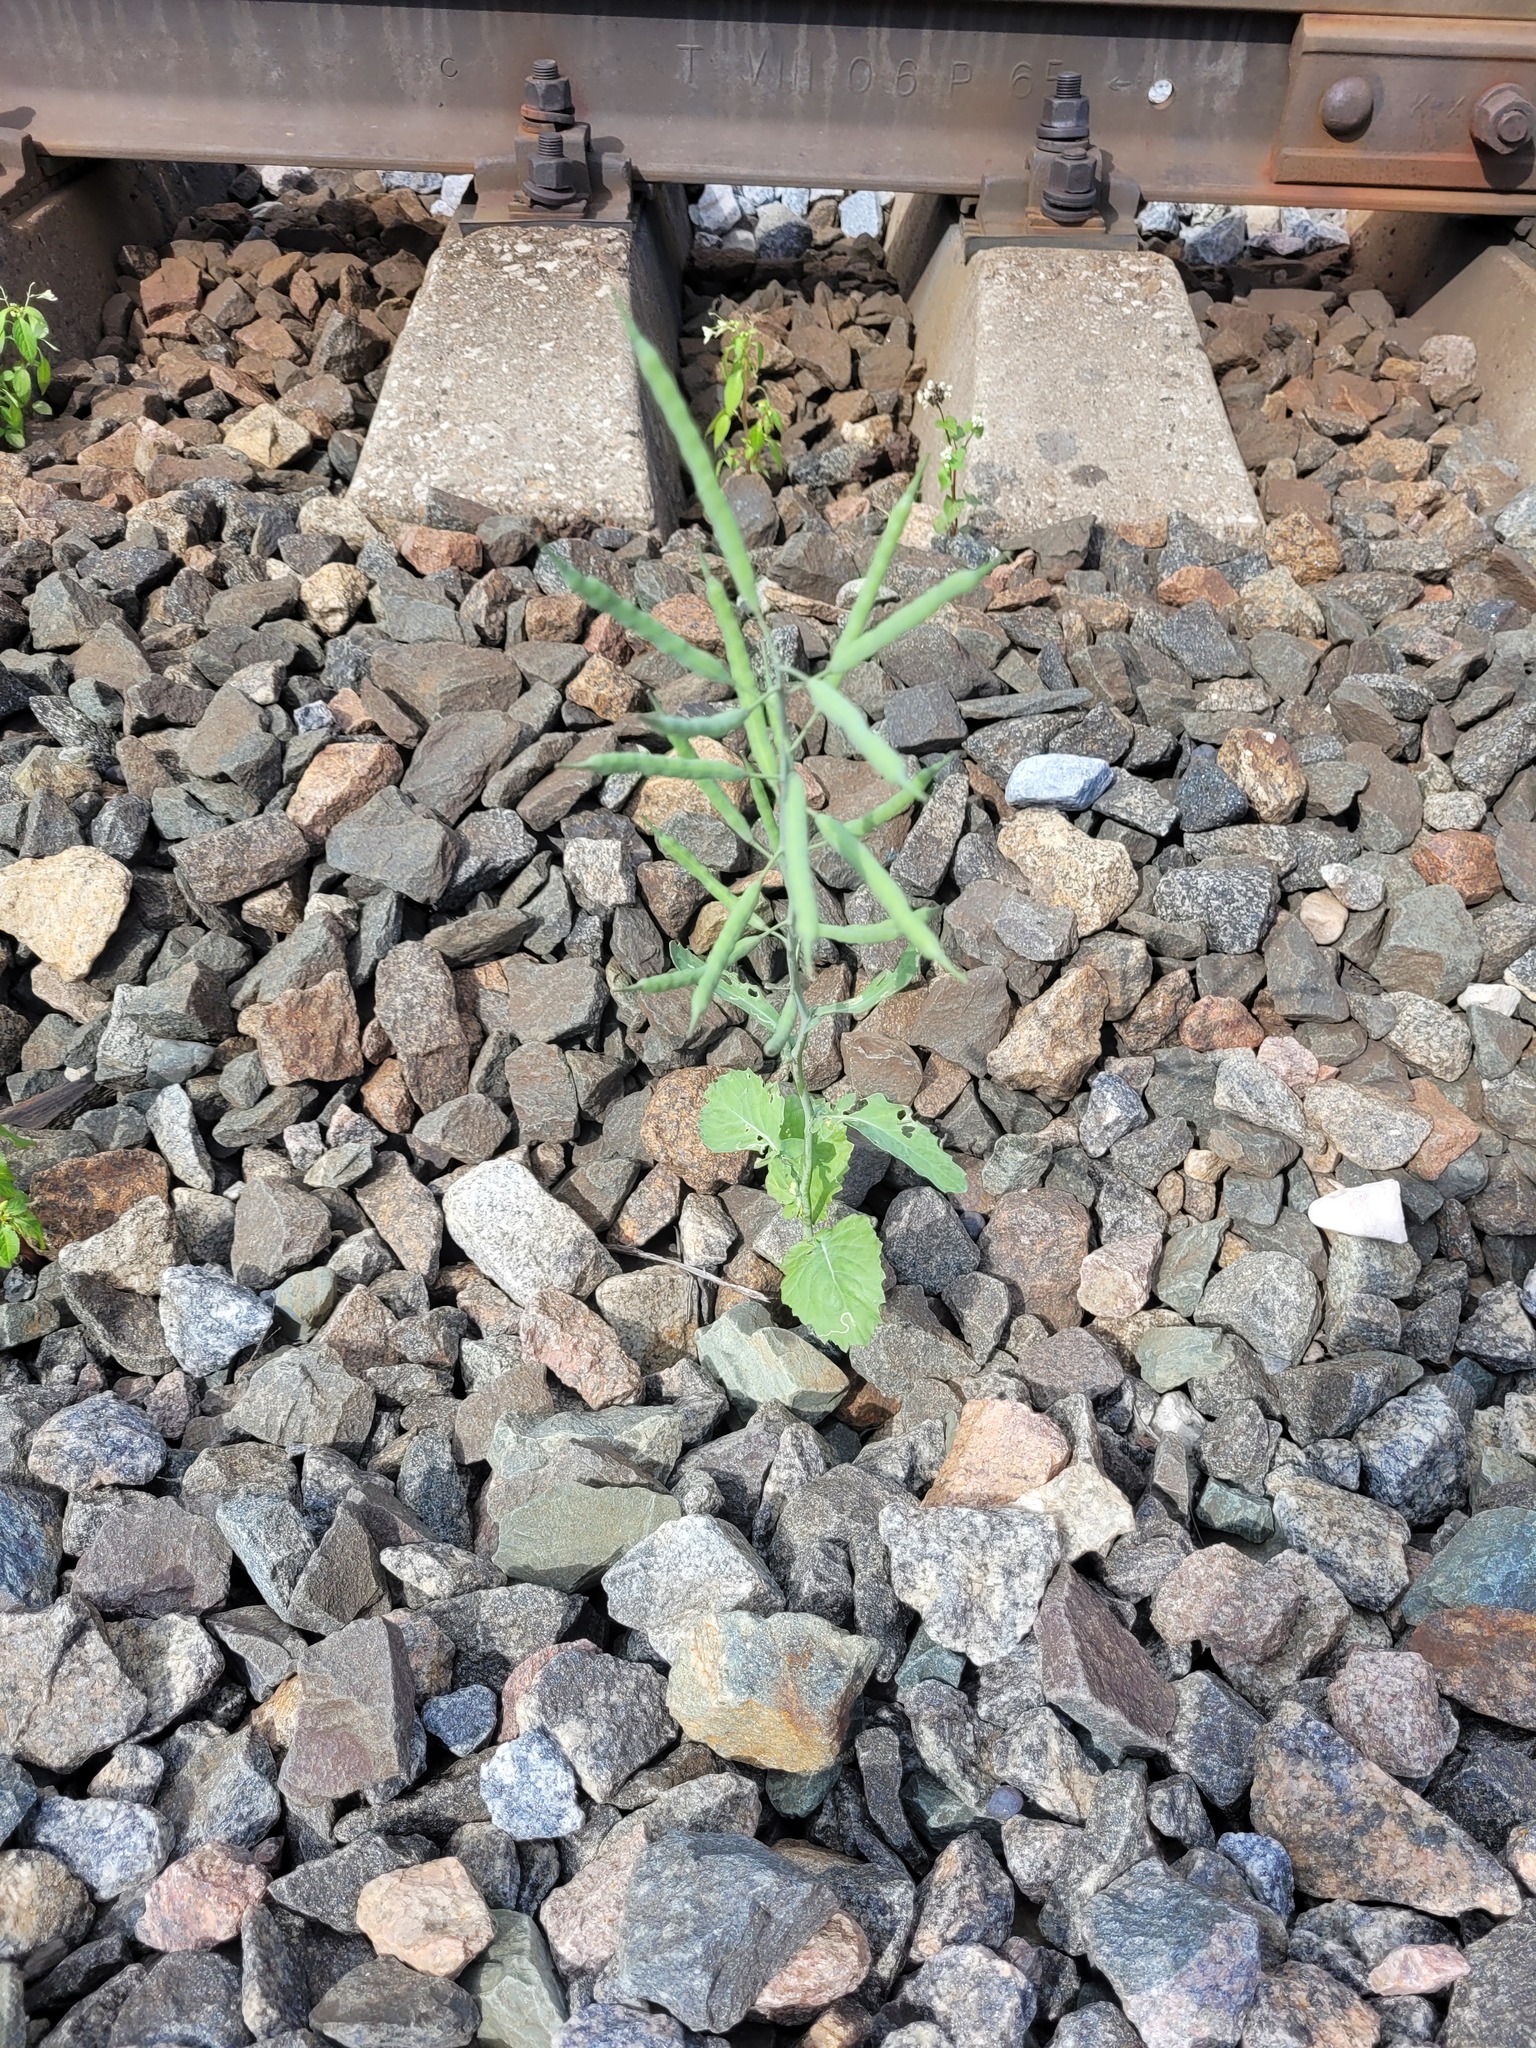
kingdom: Plantae
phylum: Tracheophyta
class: Magnoliopsida
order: Brassicales
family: Brassicaceae
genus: Brassica
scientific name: Brassica napus
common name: Rape
